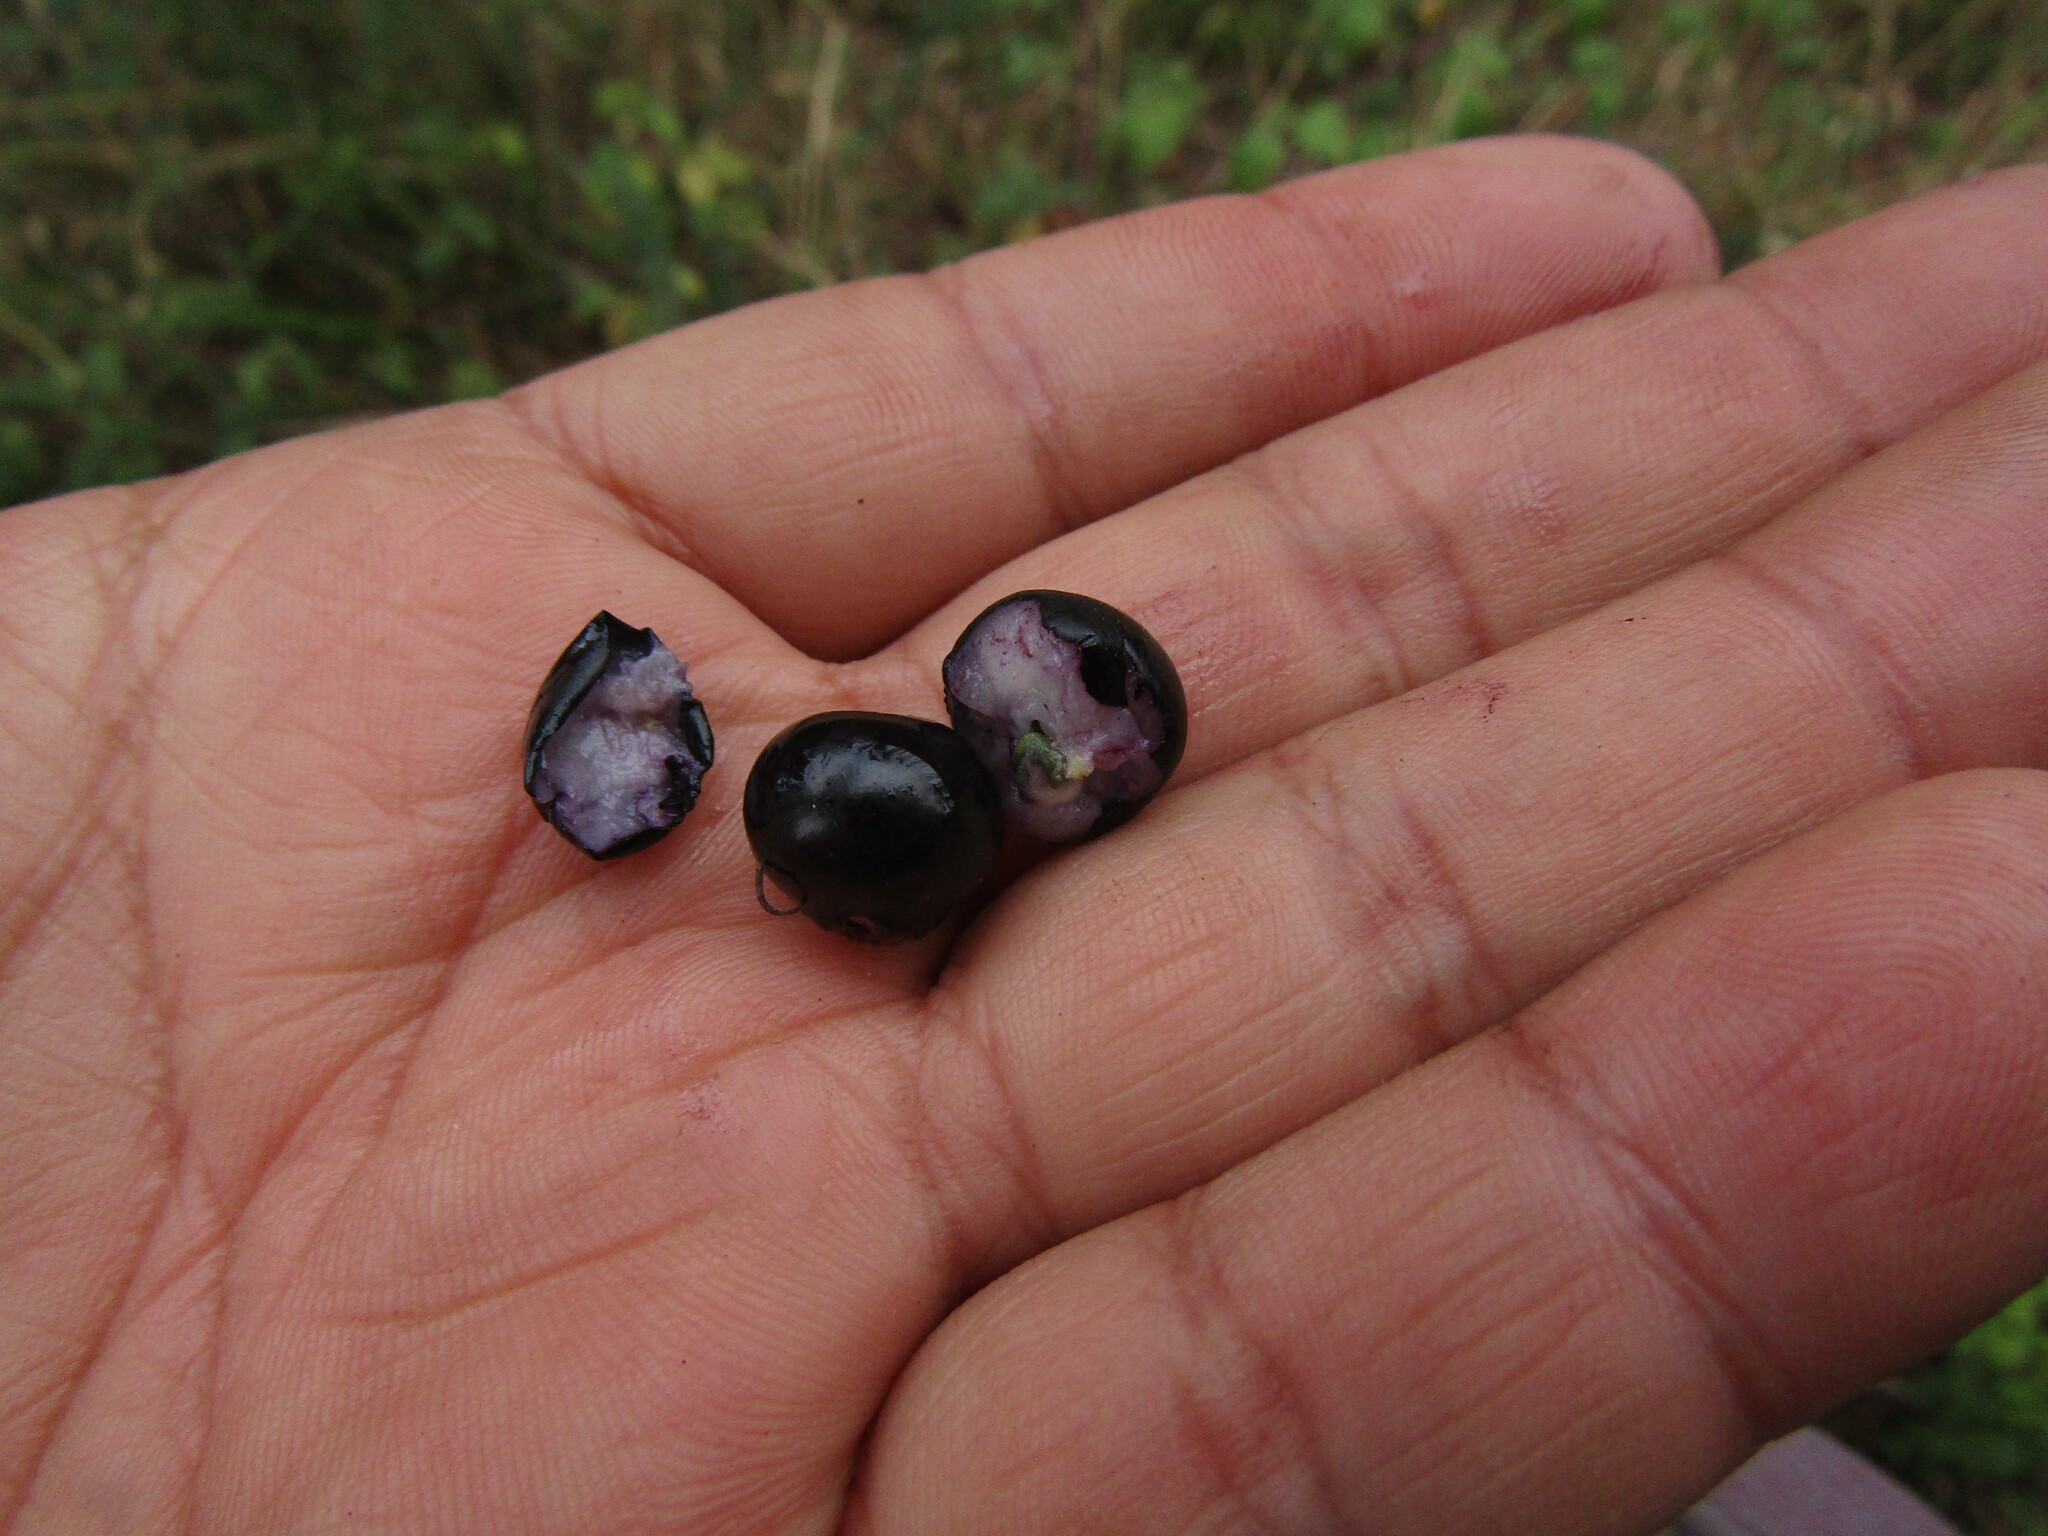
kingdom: Plantae
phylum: Tracheophyta
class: Magnoliopsida
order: Myrtales
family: Myrtaceae
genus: Luma
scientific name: Luma apiculata
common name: Chilean myrtle
